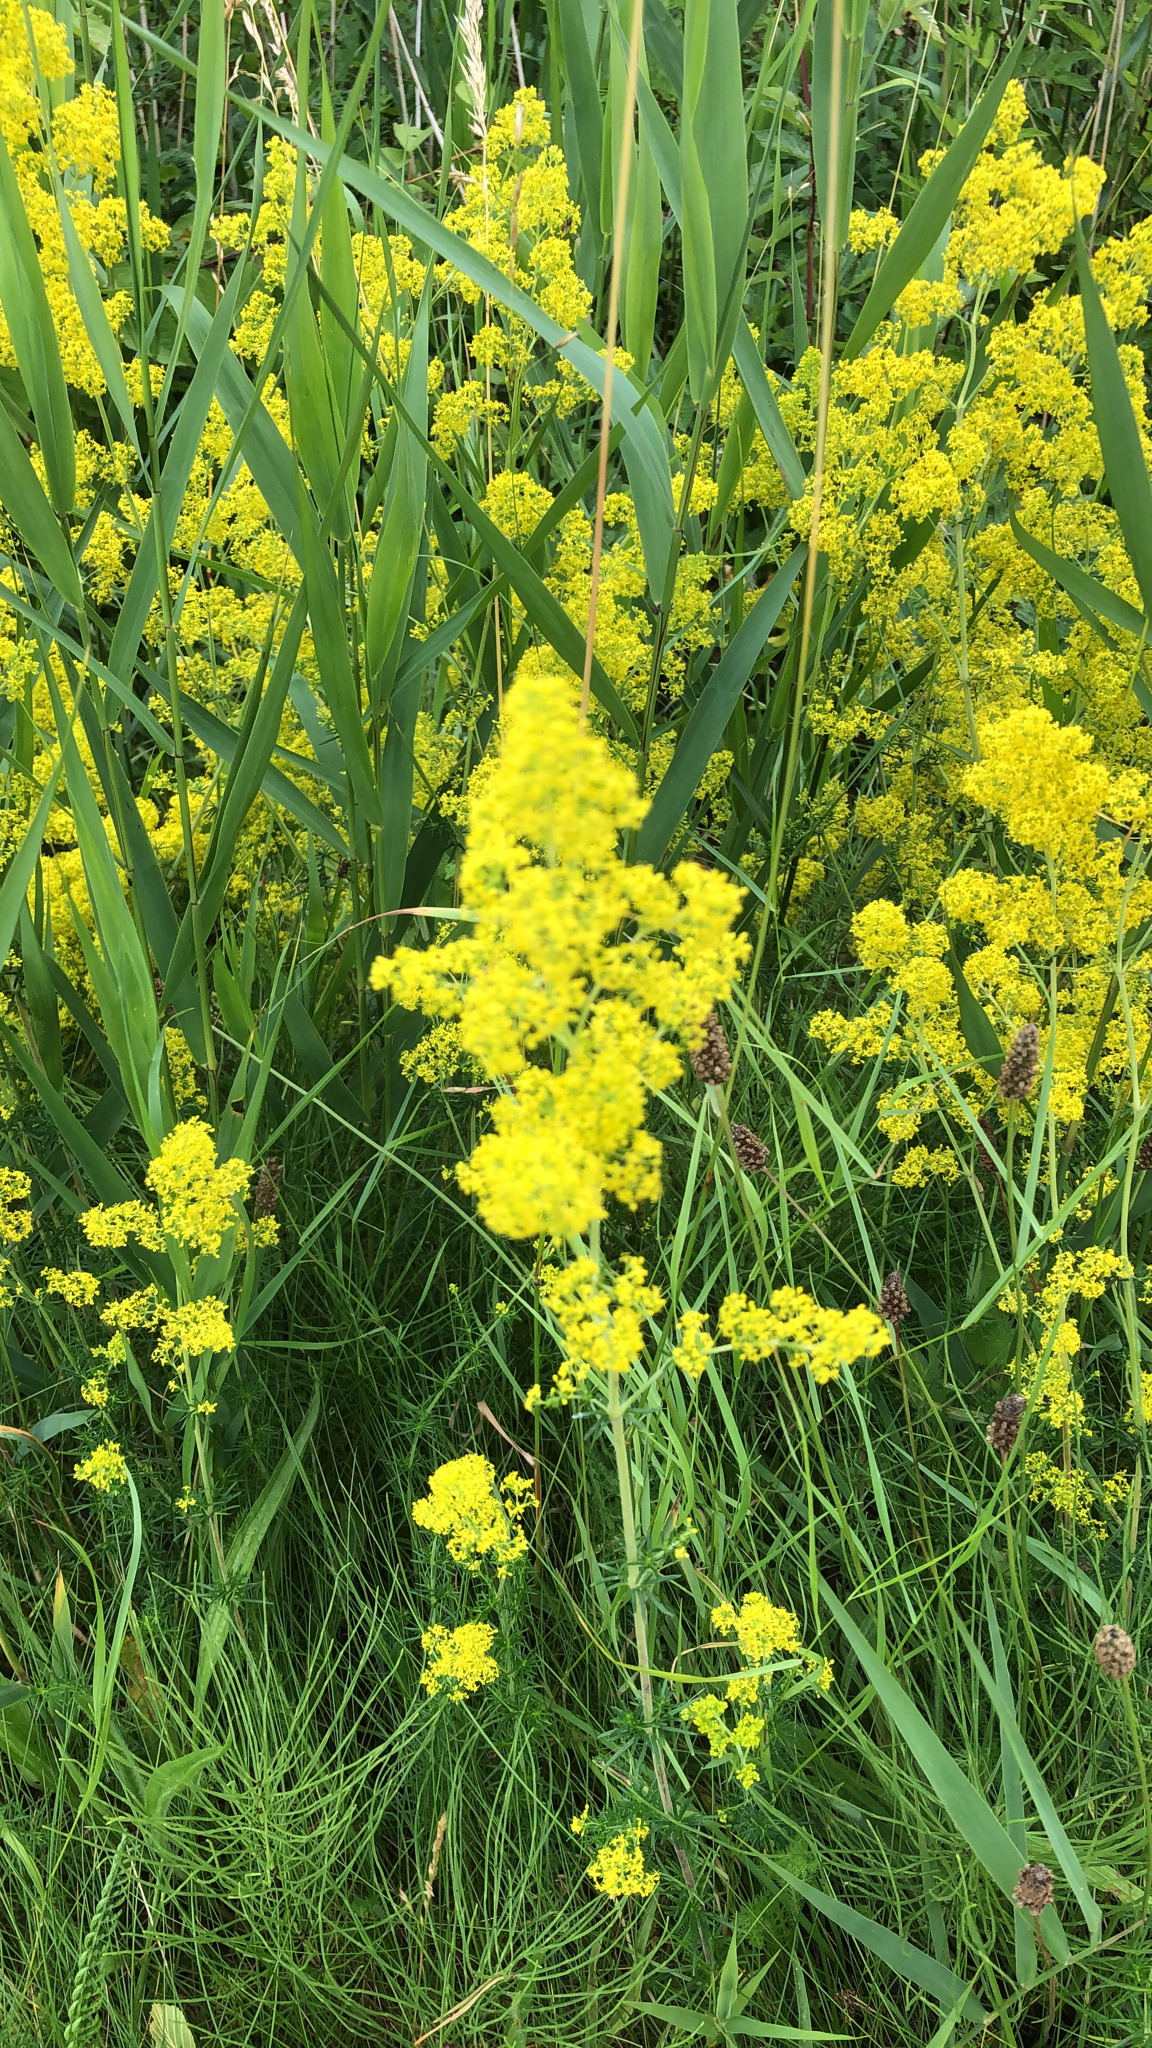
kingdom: Plantae
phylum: Tracheophyta
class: Magnoliopsida
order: Gentianales
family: Rubiaceae
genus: Galium
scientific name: Galium verum
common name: Lady's bedstraw
